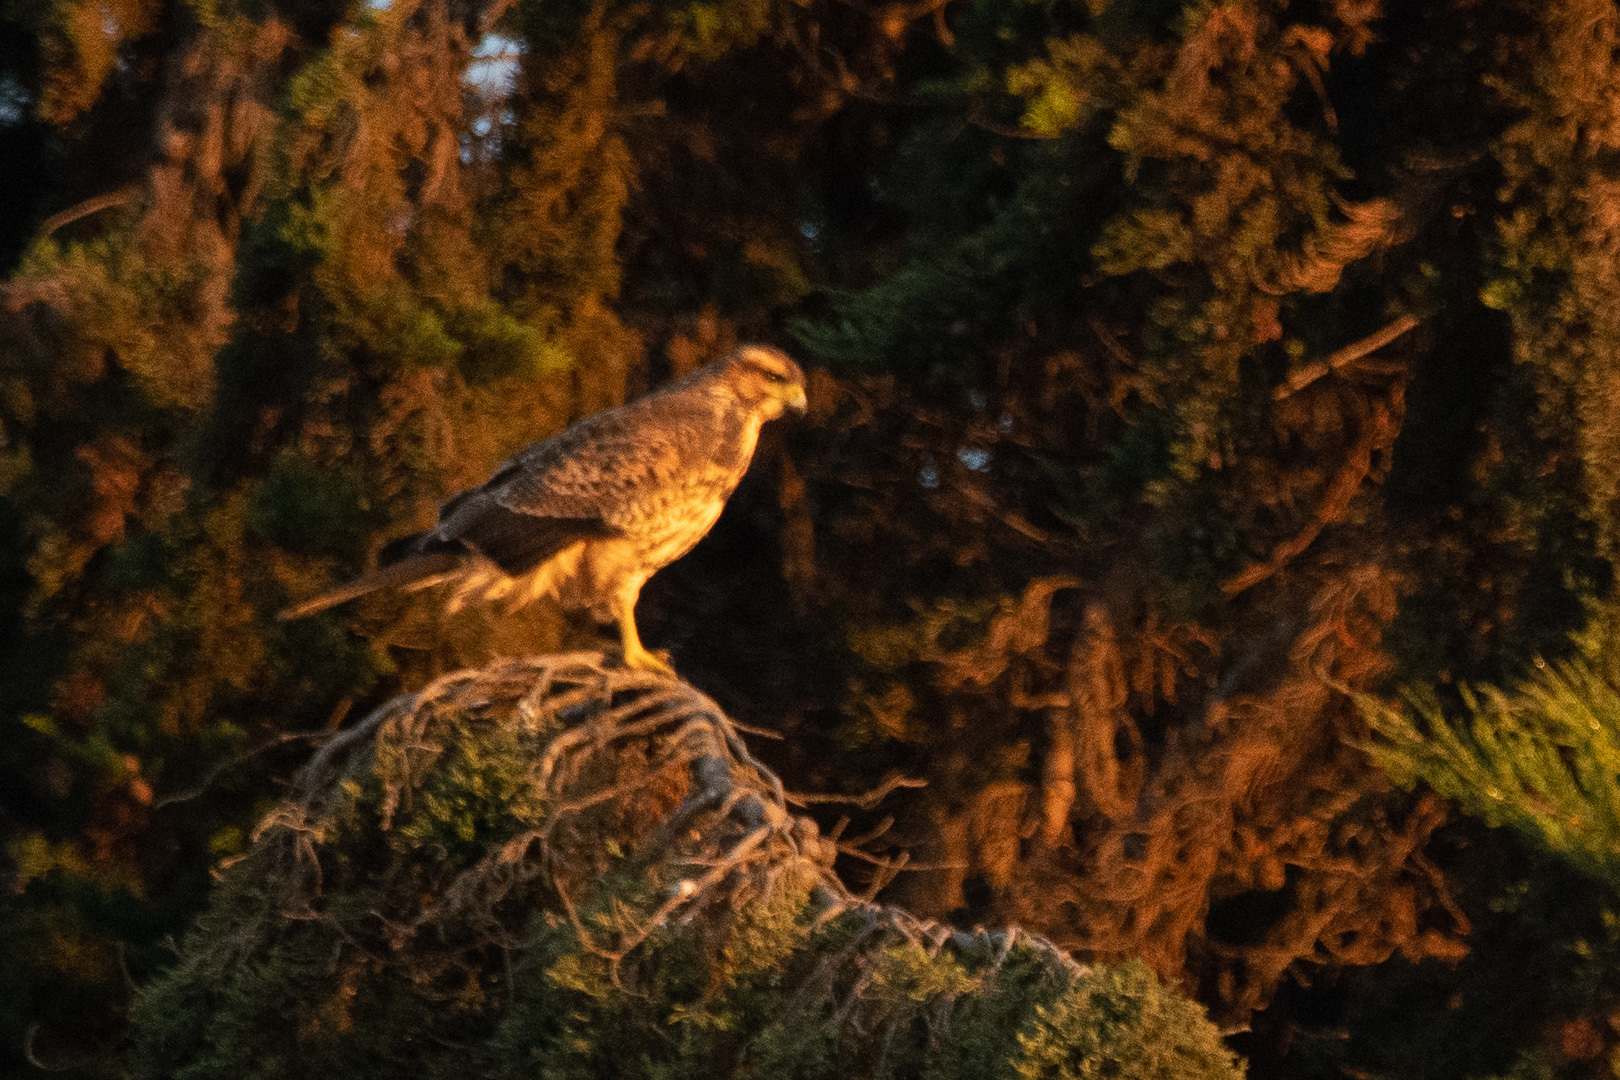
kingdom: Animalia
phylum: Chordata
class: Aves
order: Accipitriformes
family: Accipitridae
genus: Buteo
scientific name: Buteo polyosoma
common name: Variable hawk
